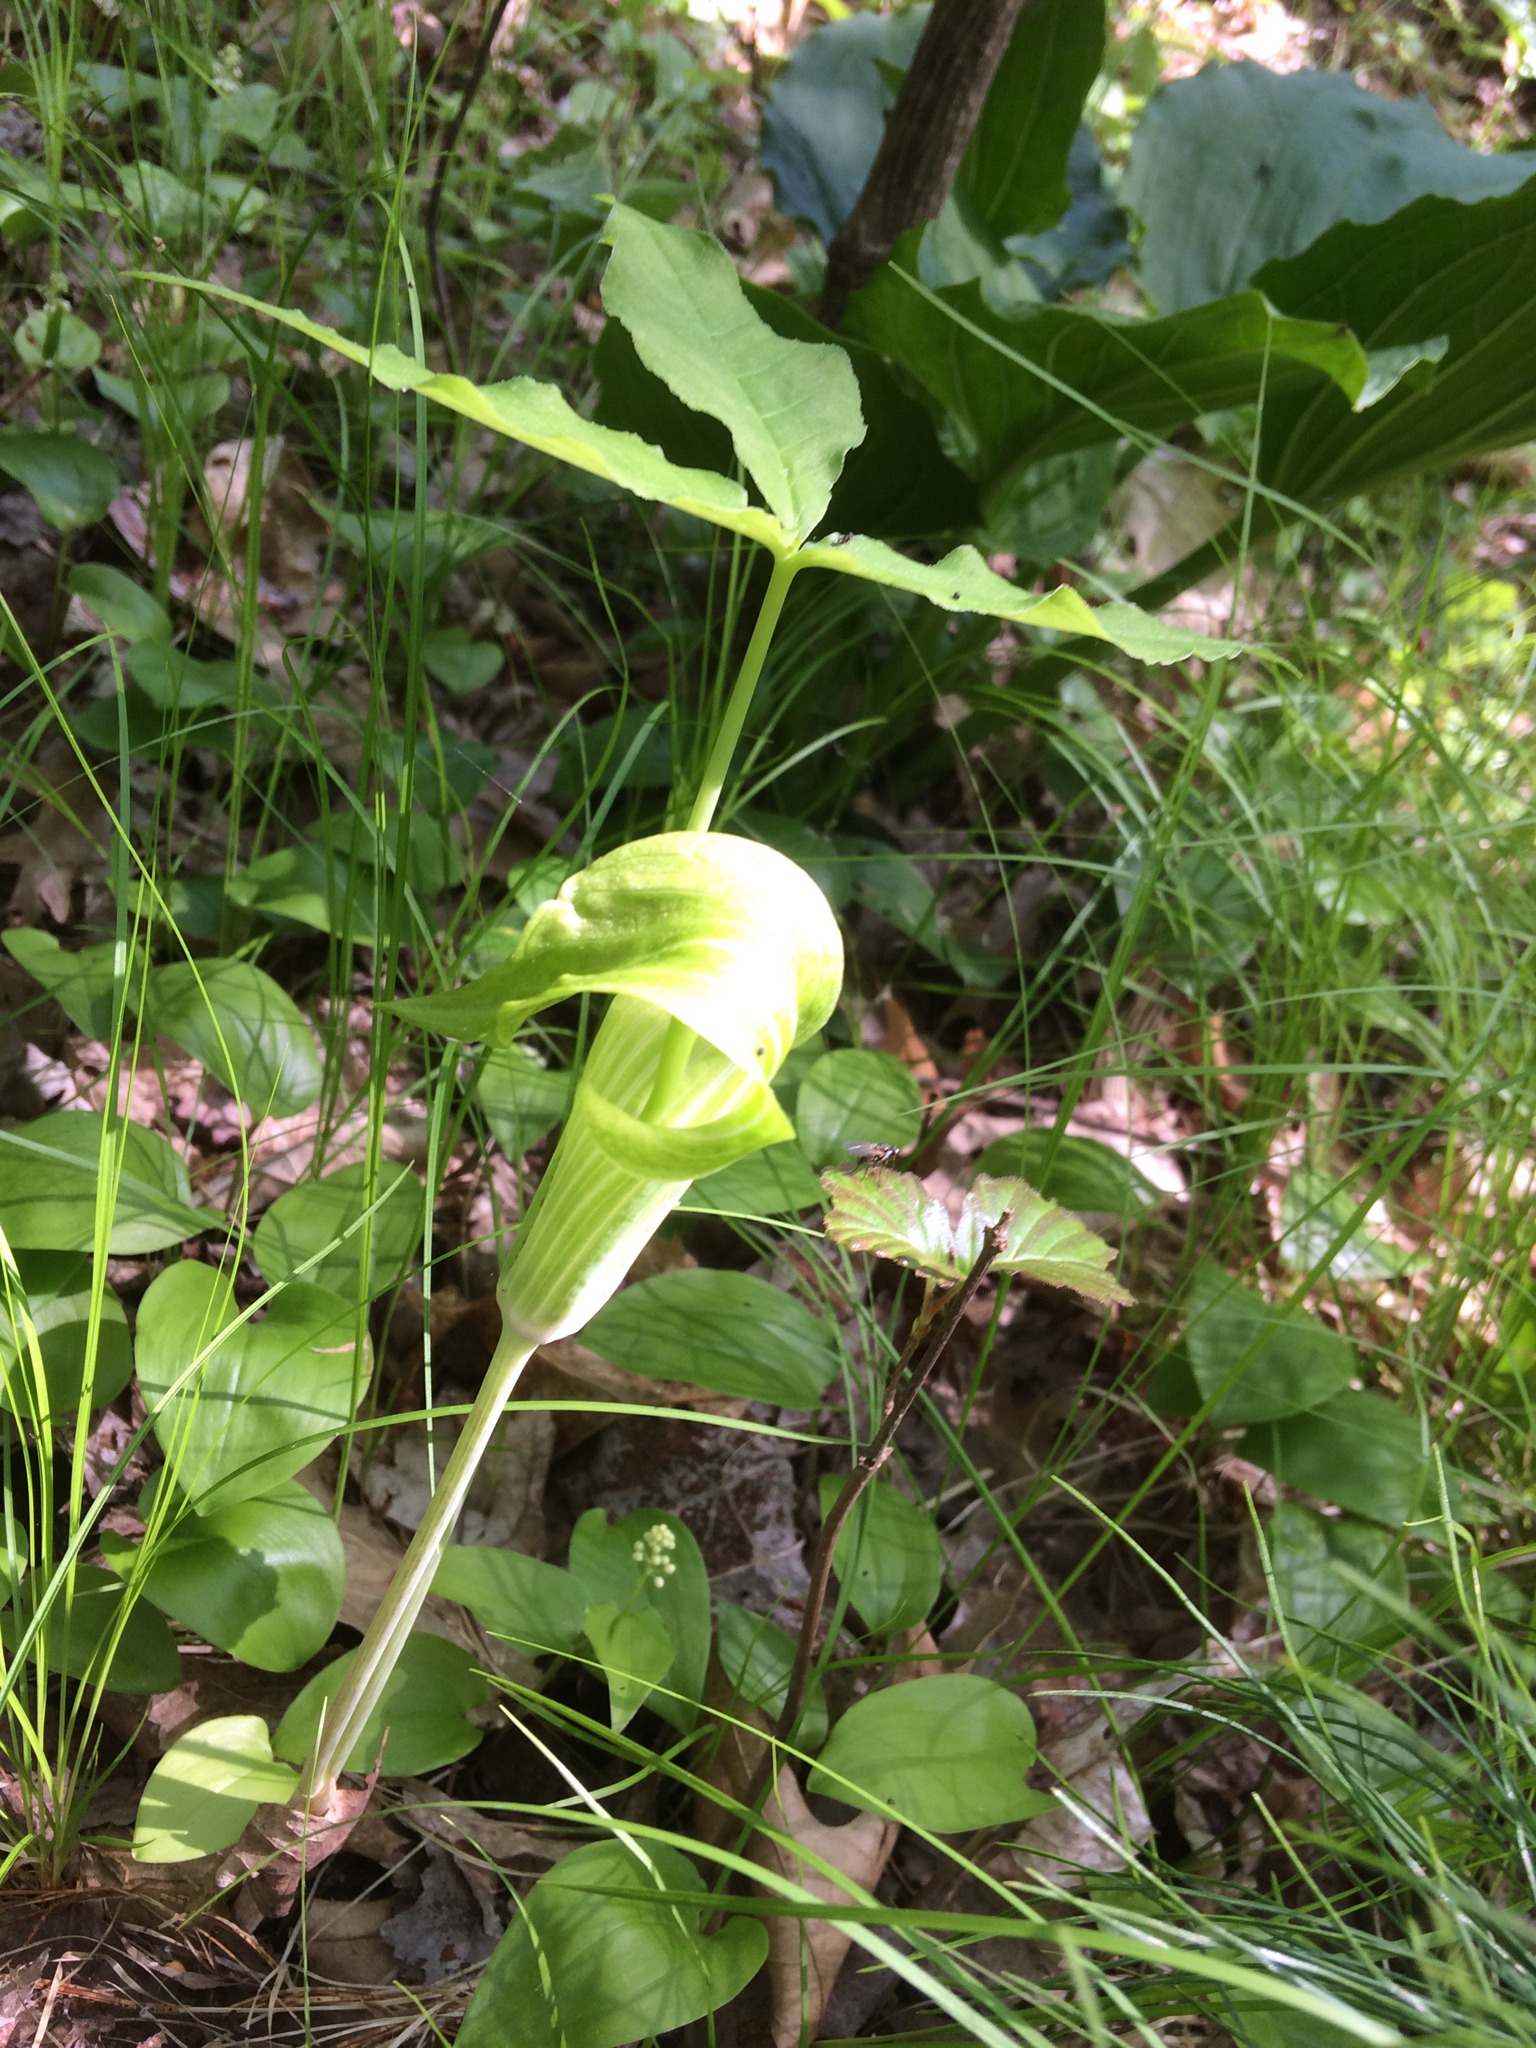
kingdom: Plantae
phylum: Tracheophyta
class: Liliopsida
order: Alismatales
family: Araceae
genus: Arisaema
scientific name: Arisaema triphyllum
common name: Jack-in-the-pulpit
